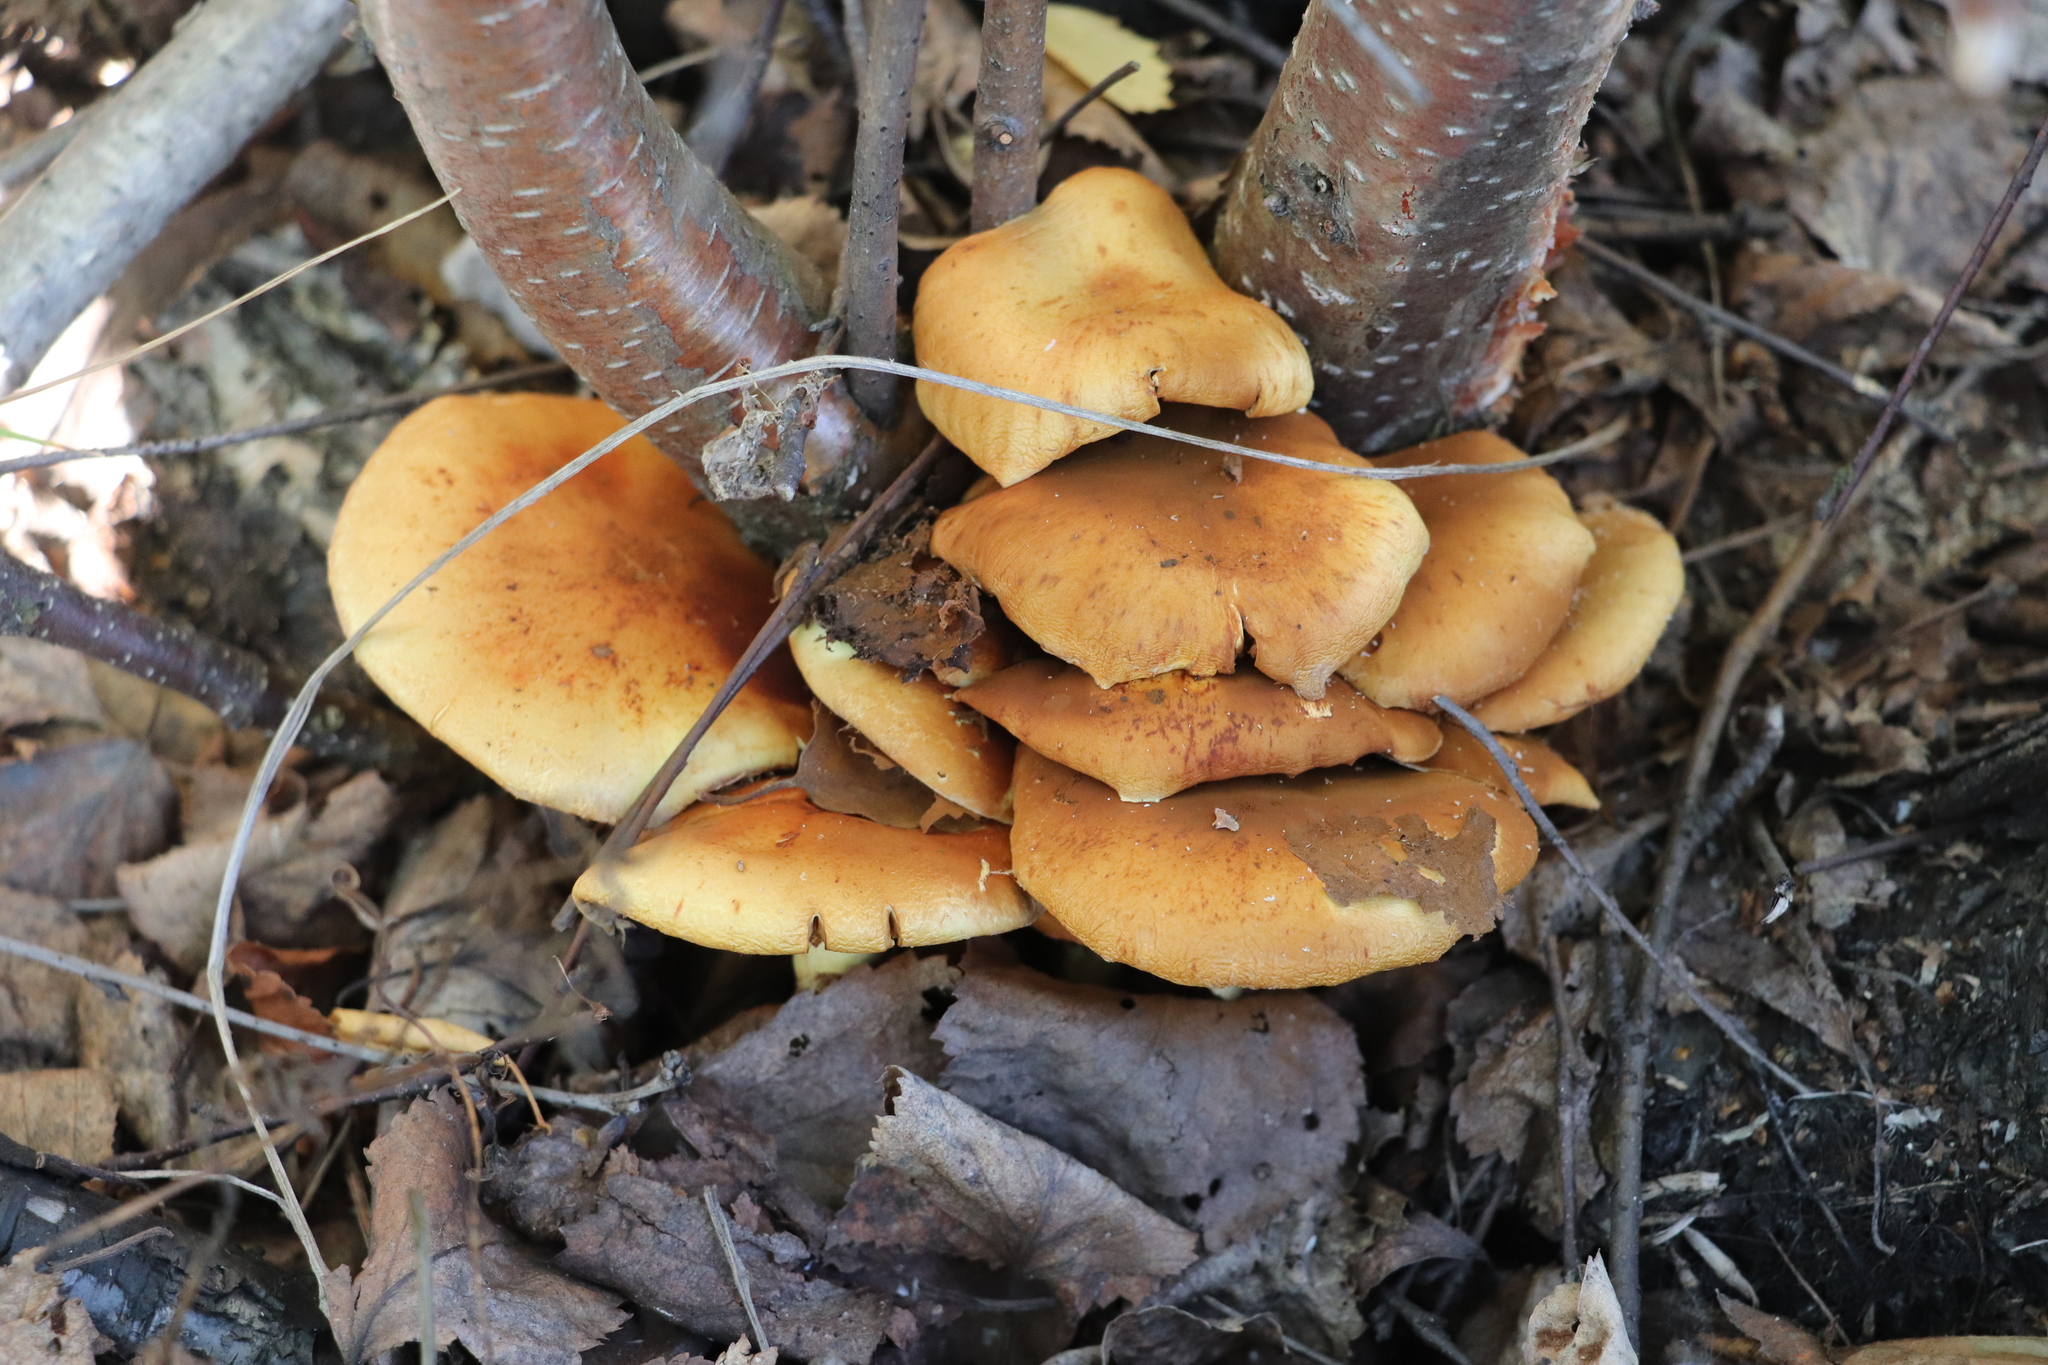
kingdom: Fungi
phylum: Basidiomycota
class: Agaricomycetes
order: Agaricales
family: Hymenogastraceae
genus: Flammula
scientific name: Flammula alnicola
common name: Alder scalycap
